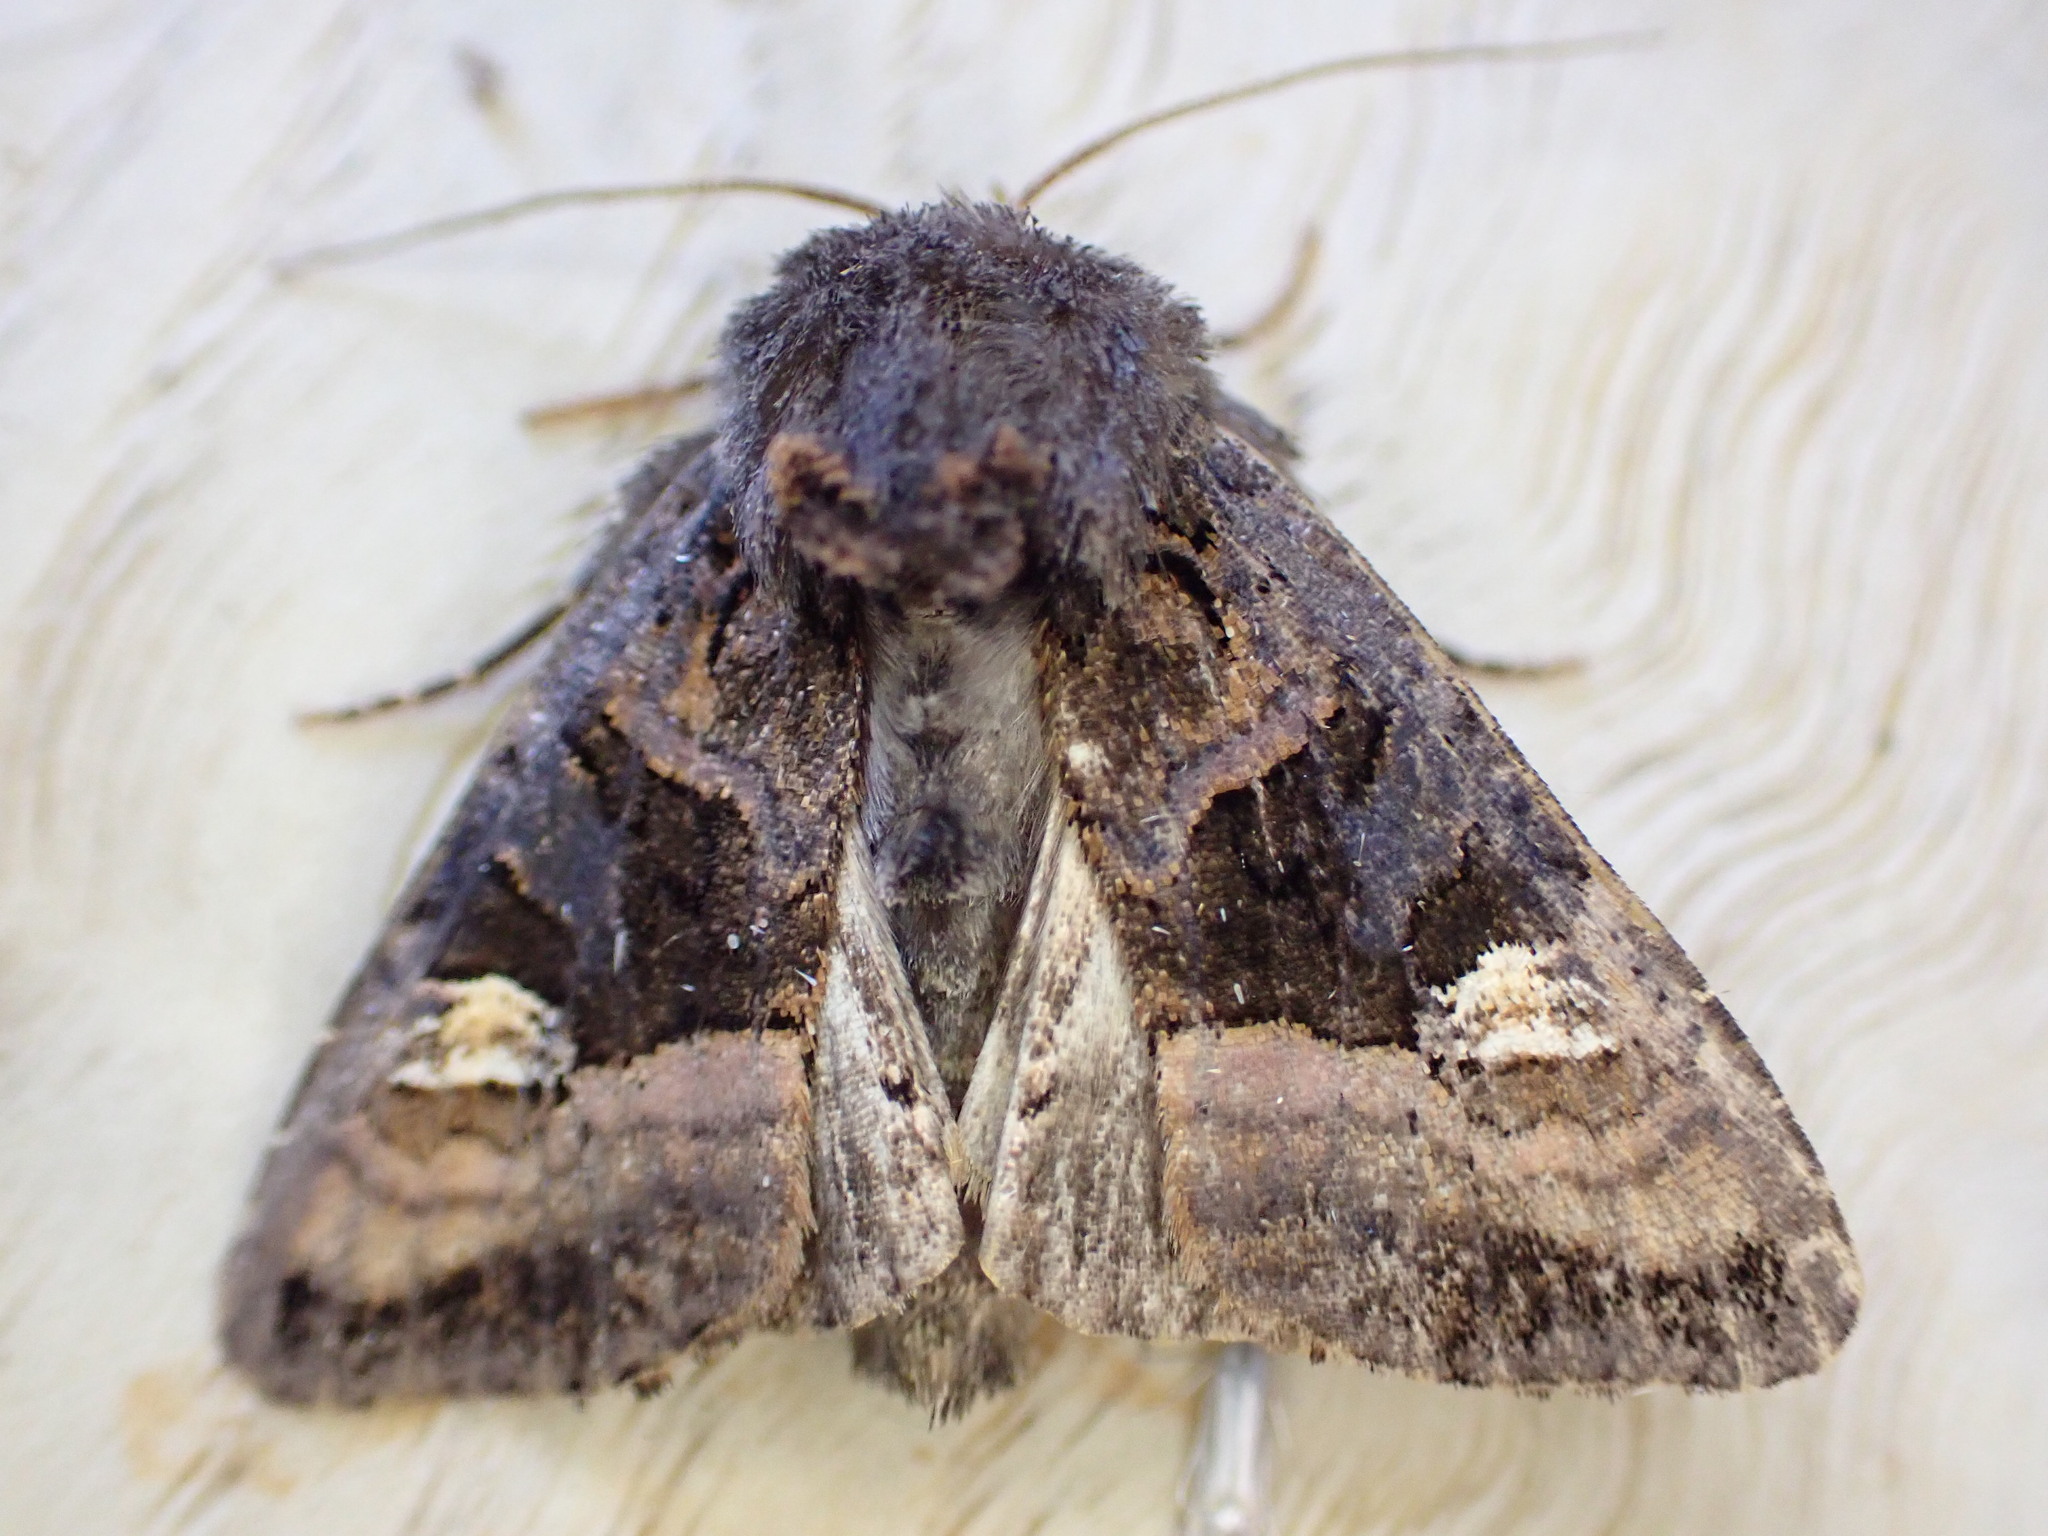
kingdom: Animalia
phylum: Arthropoda
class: Insecta
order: Lepidoptera
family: Noctuidae
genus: Euplexia
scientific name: Euplexia lucipara
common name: Small angle shades
